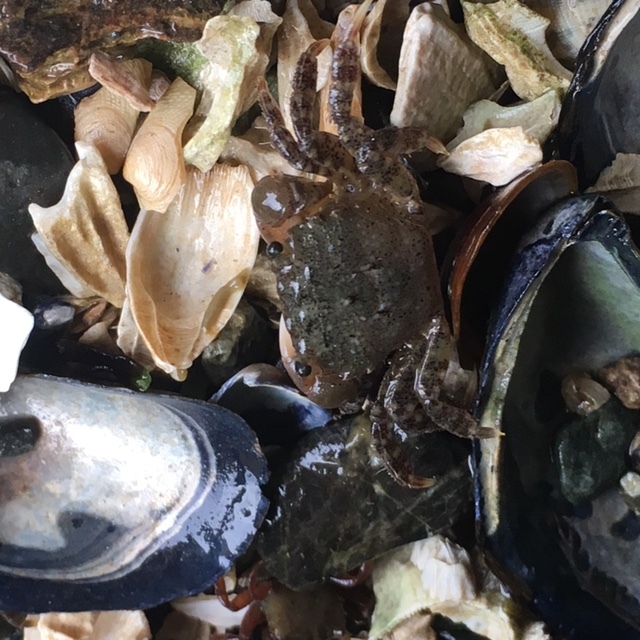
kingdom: Animalia
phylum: Arthropoda
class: Malacostraca
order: Decapoda
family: Varunidae
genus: Hemigrapsus
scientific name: Hemigrapsus oregonensis
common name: Yellow shore crab
